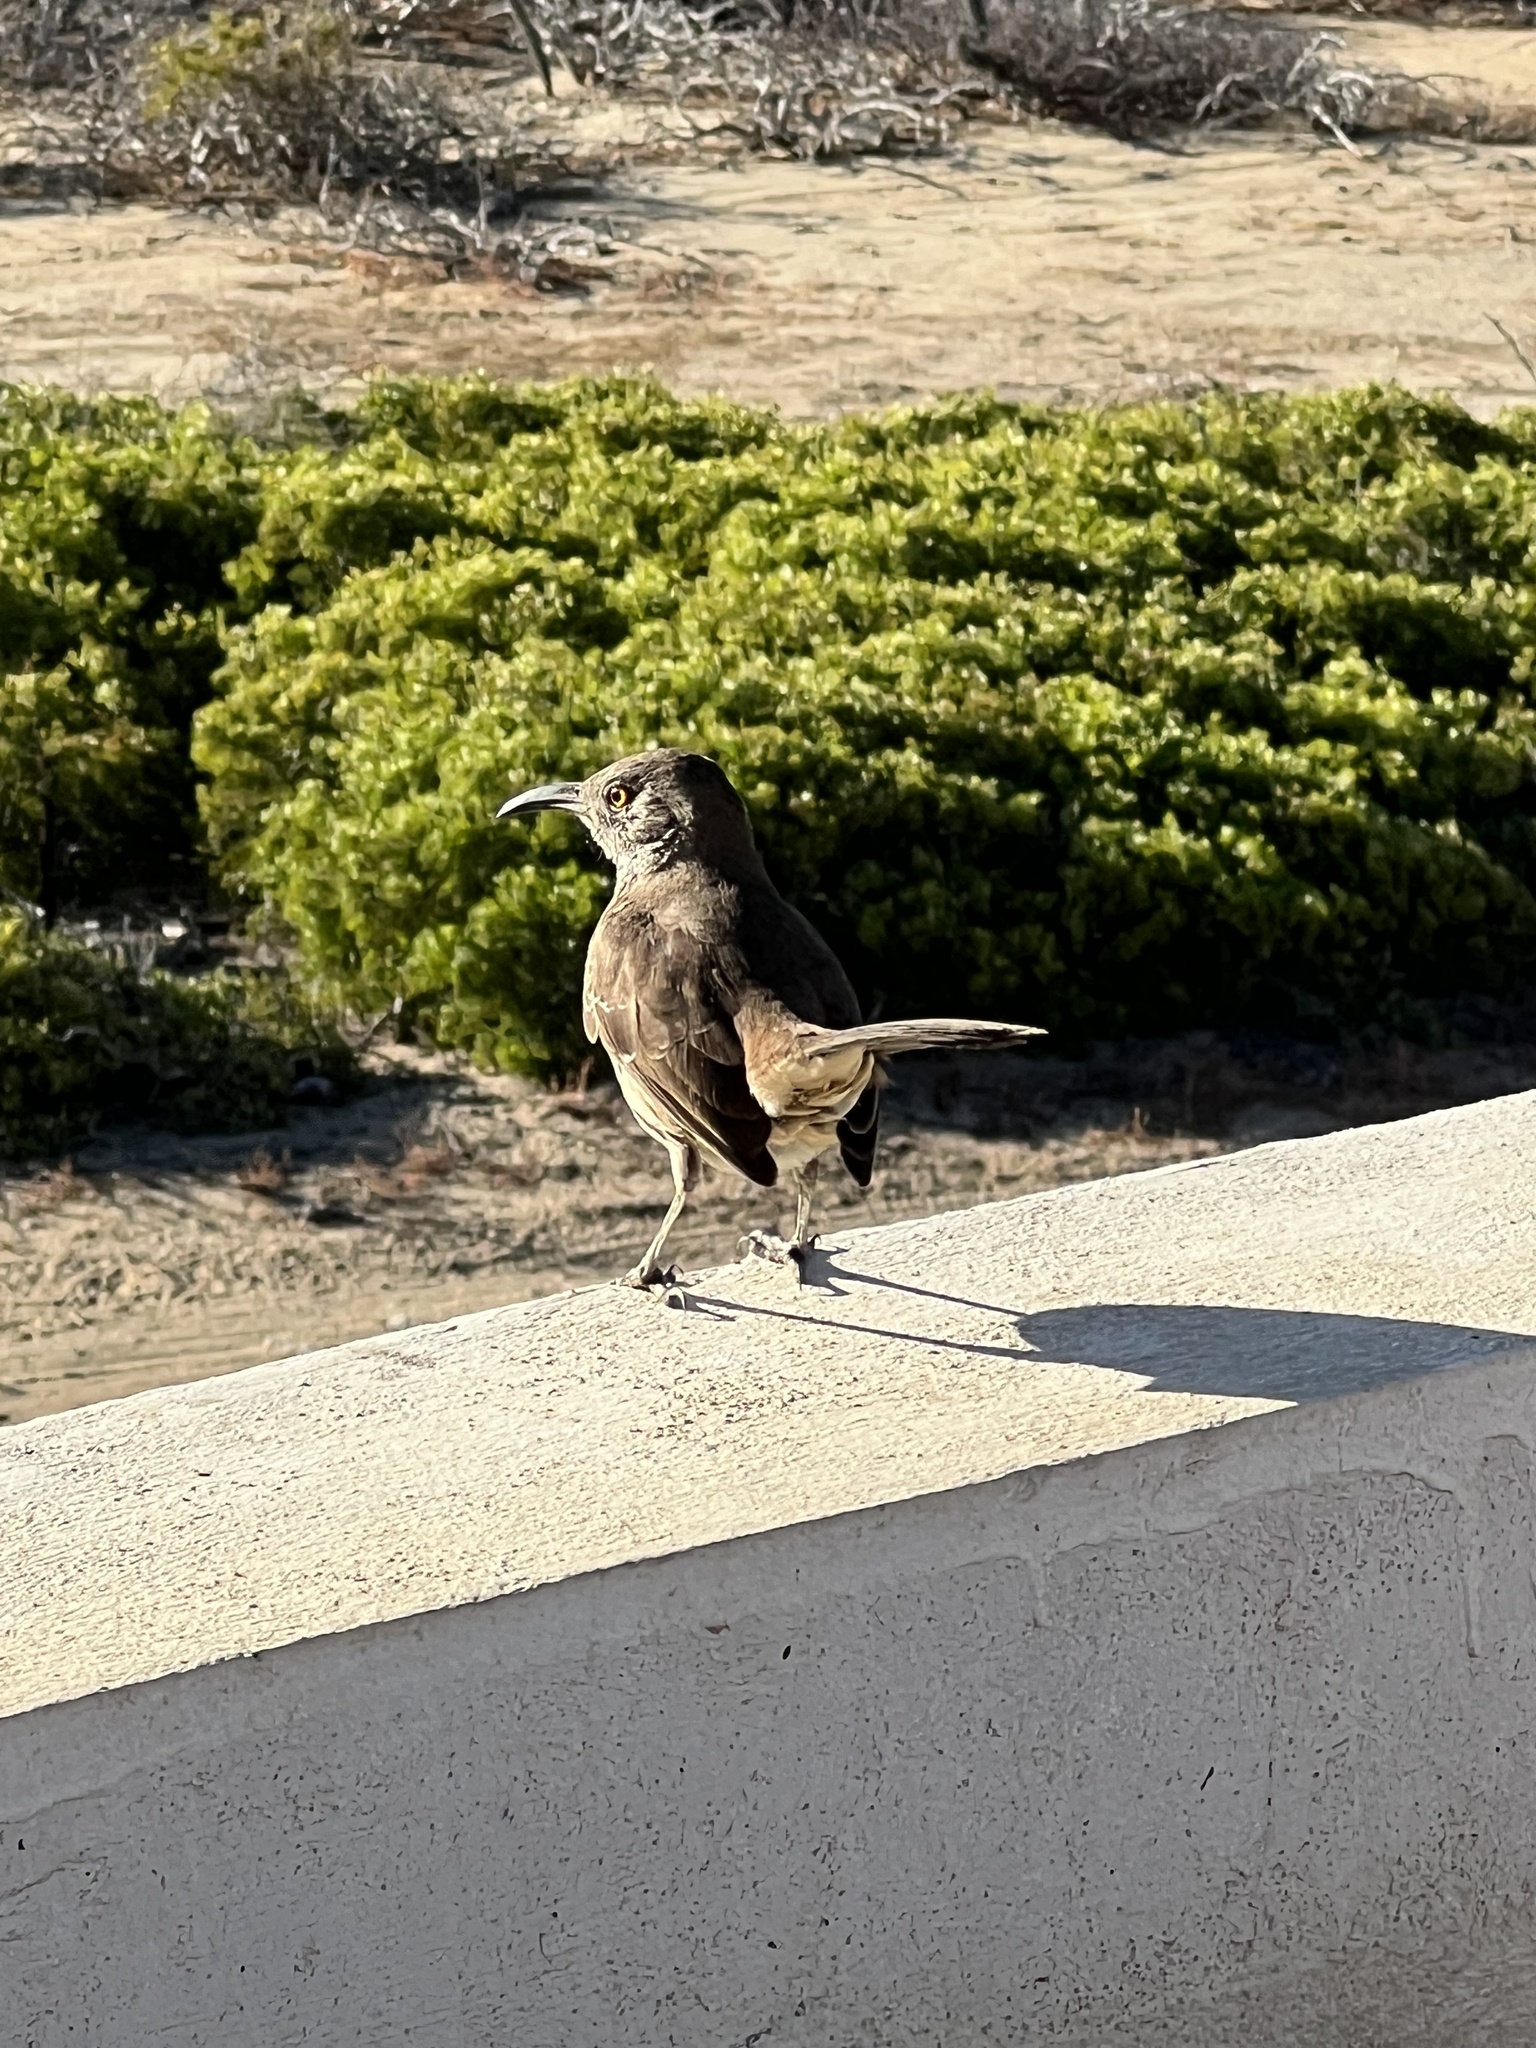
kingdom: Animalia
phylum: Chordata
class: Aves
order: Passeriformes
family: Mimidae
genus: Toxostoma
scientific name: Toxostoma cinereum
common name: Gray thrasher
